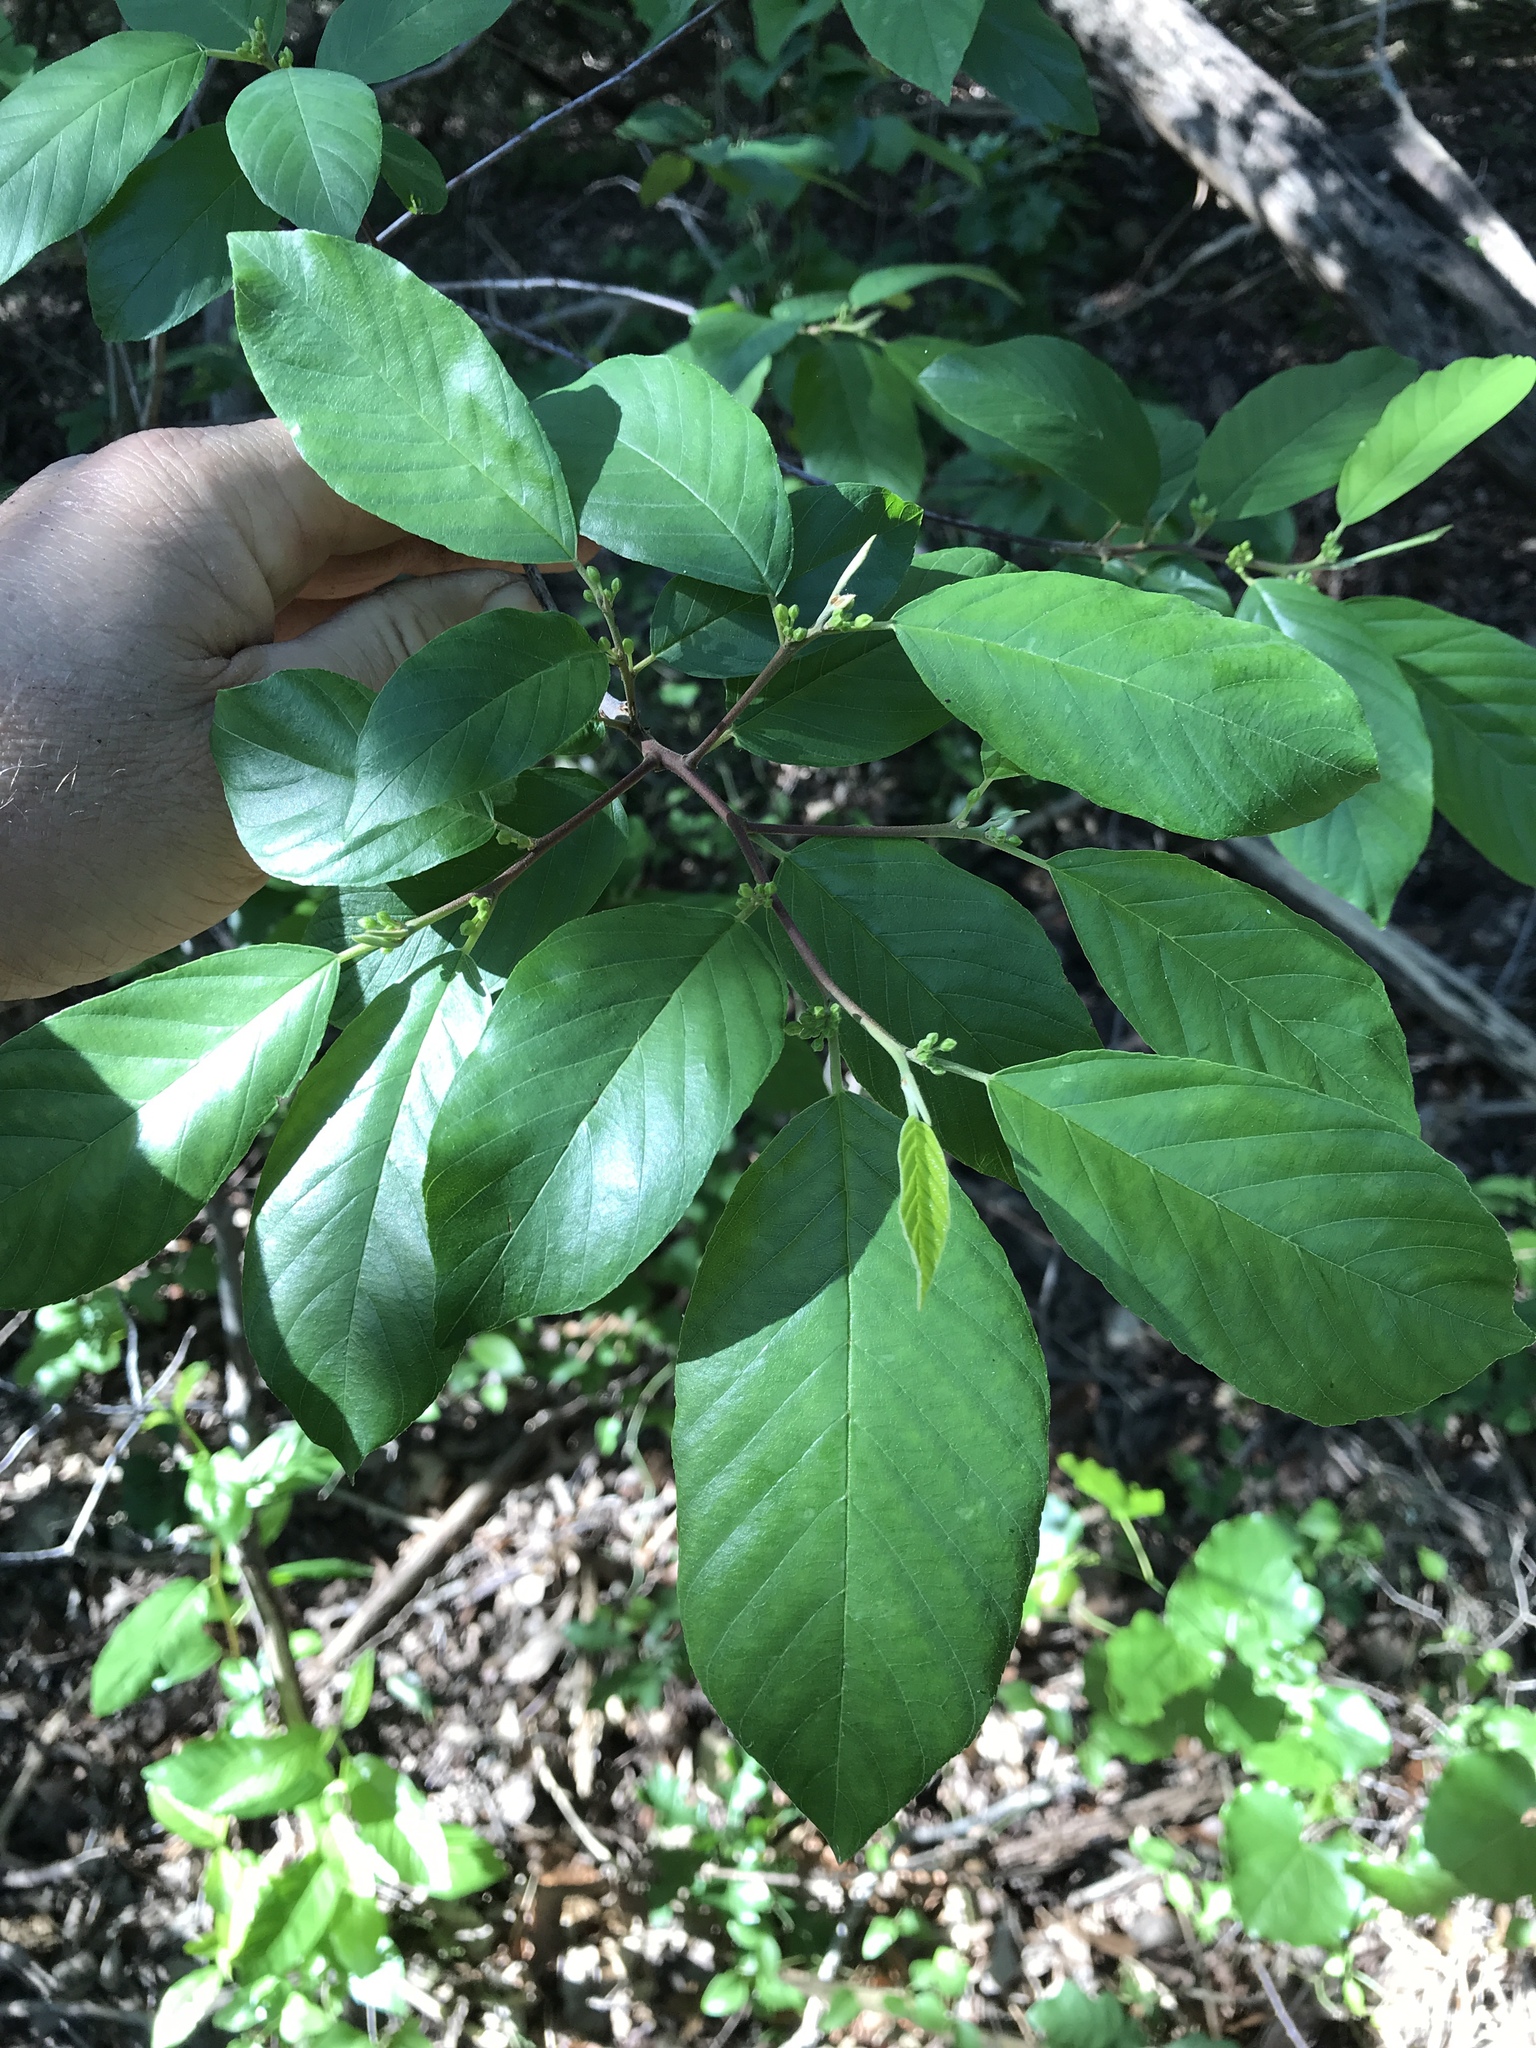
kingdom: Plantae
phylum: Tracheophyta
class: Magnoliopsida
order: Rosales
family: Rhamnaceae
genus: Frangula
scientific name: Frangula caroliniana
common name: Carolina buckthorn
